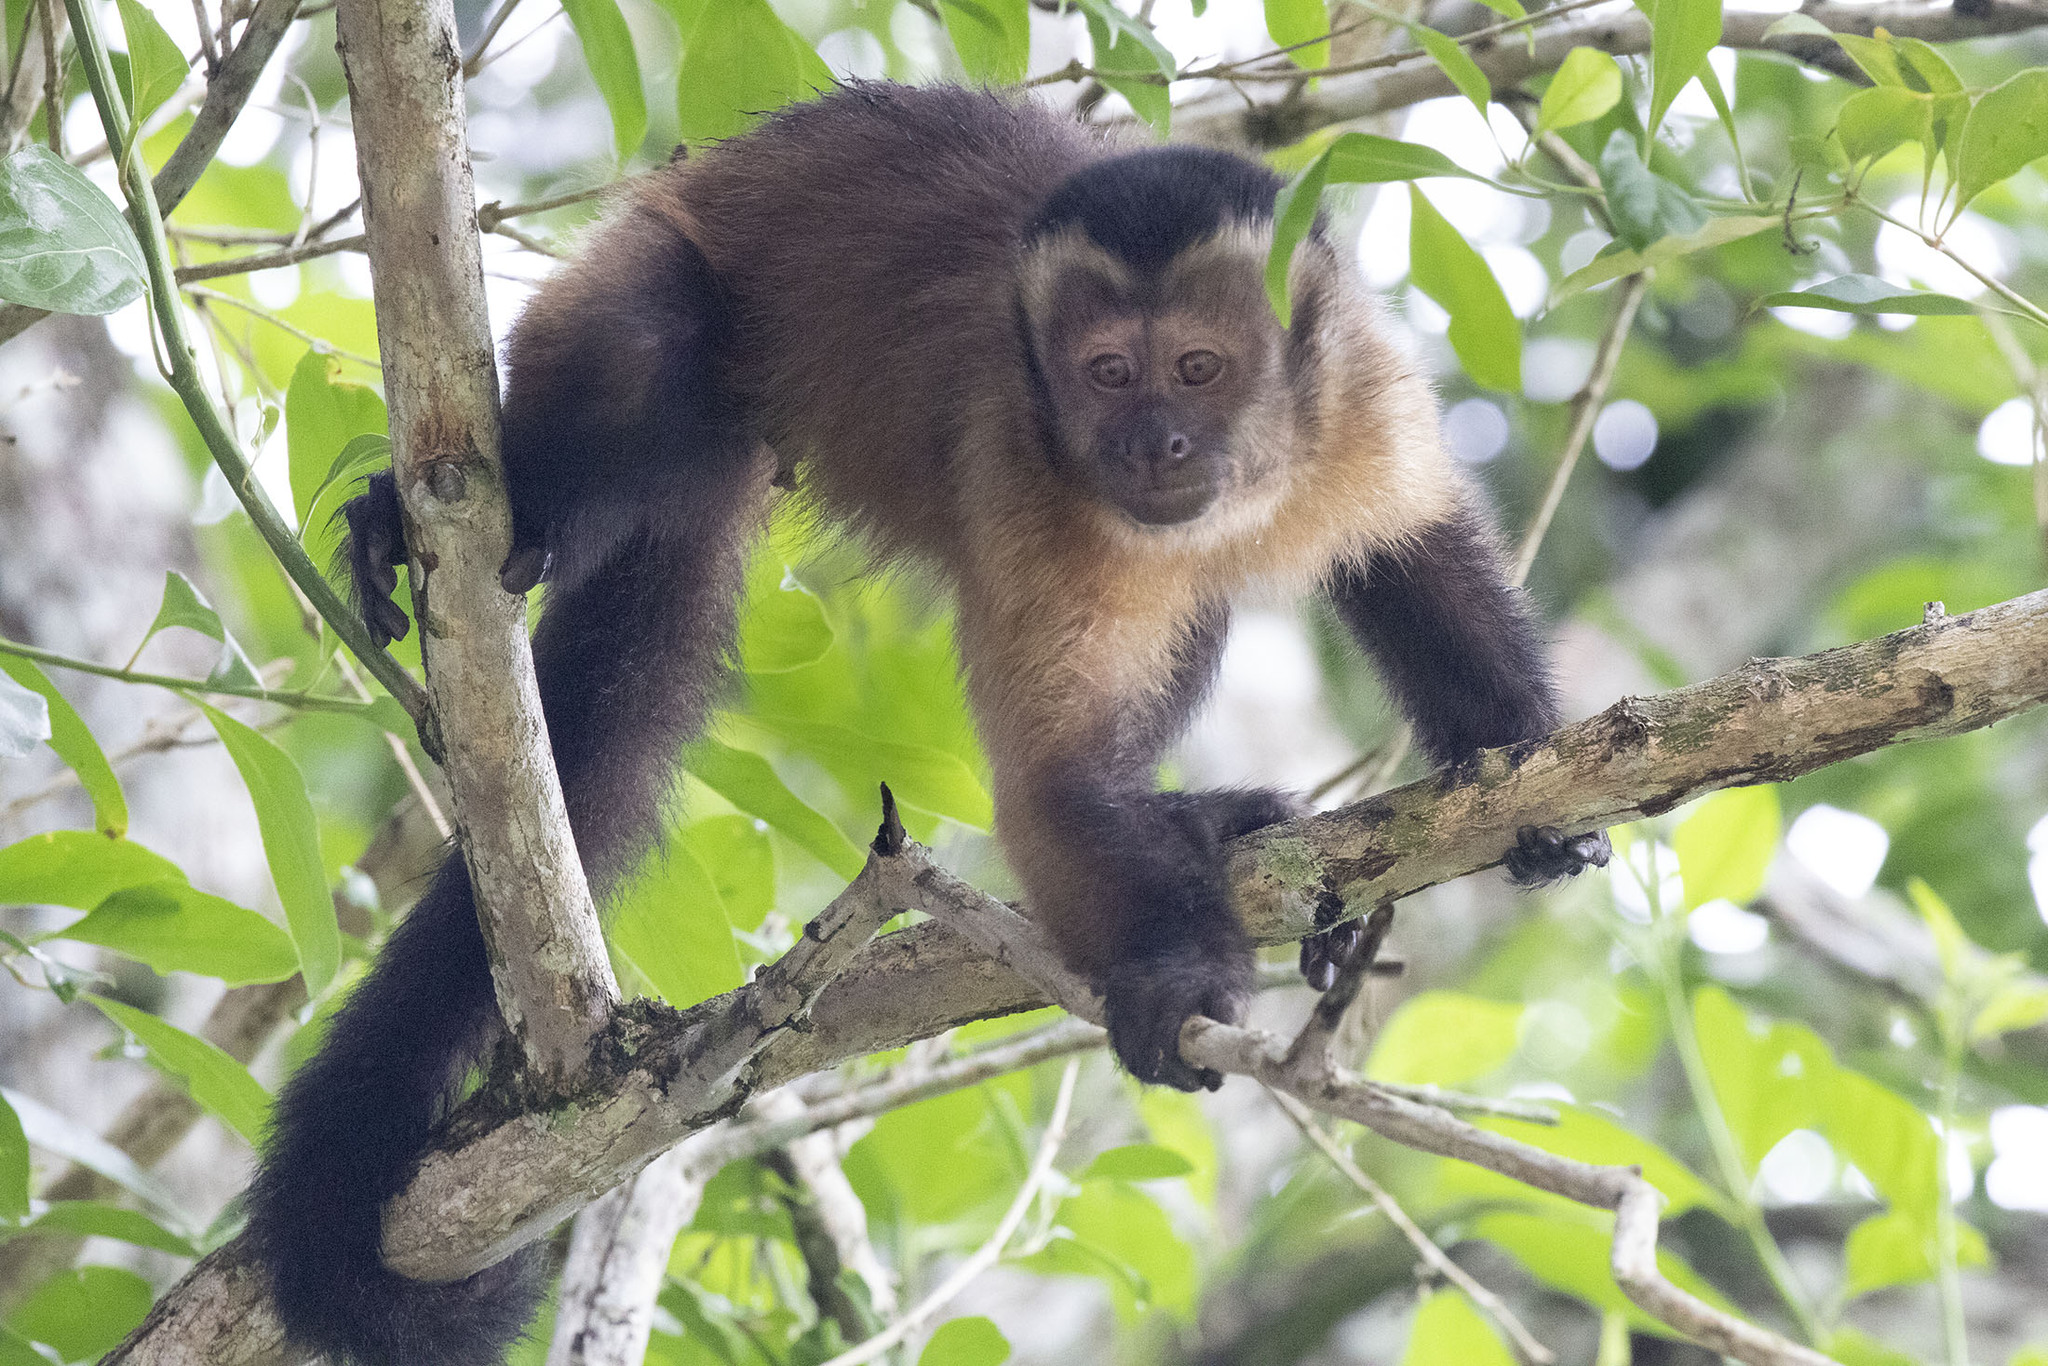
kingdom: Animalia
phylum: Chordata
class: Mammalia
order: Primates
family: Cebidae
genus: Sapajus
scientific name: Sapajus apella
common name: Tufted capuchin
